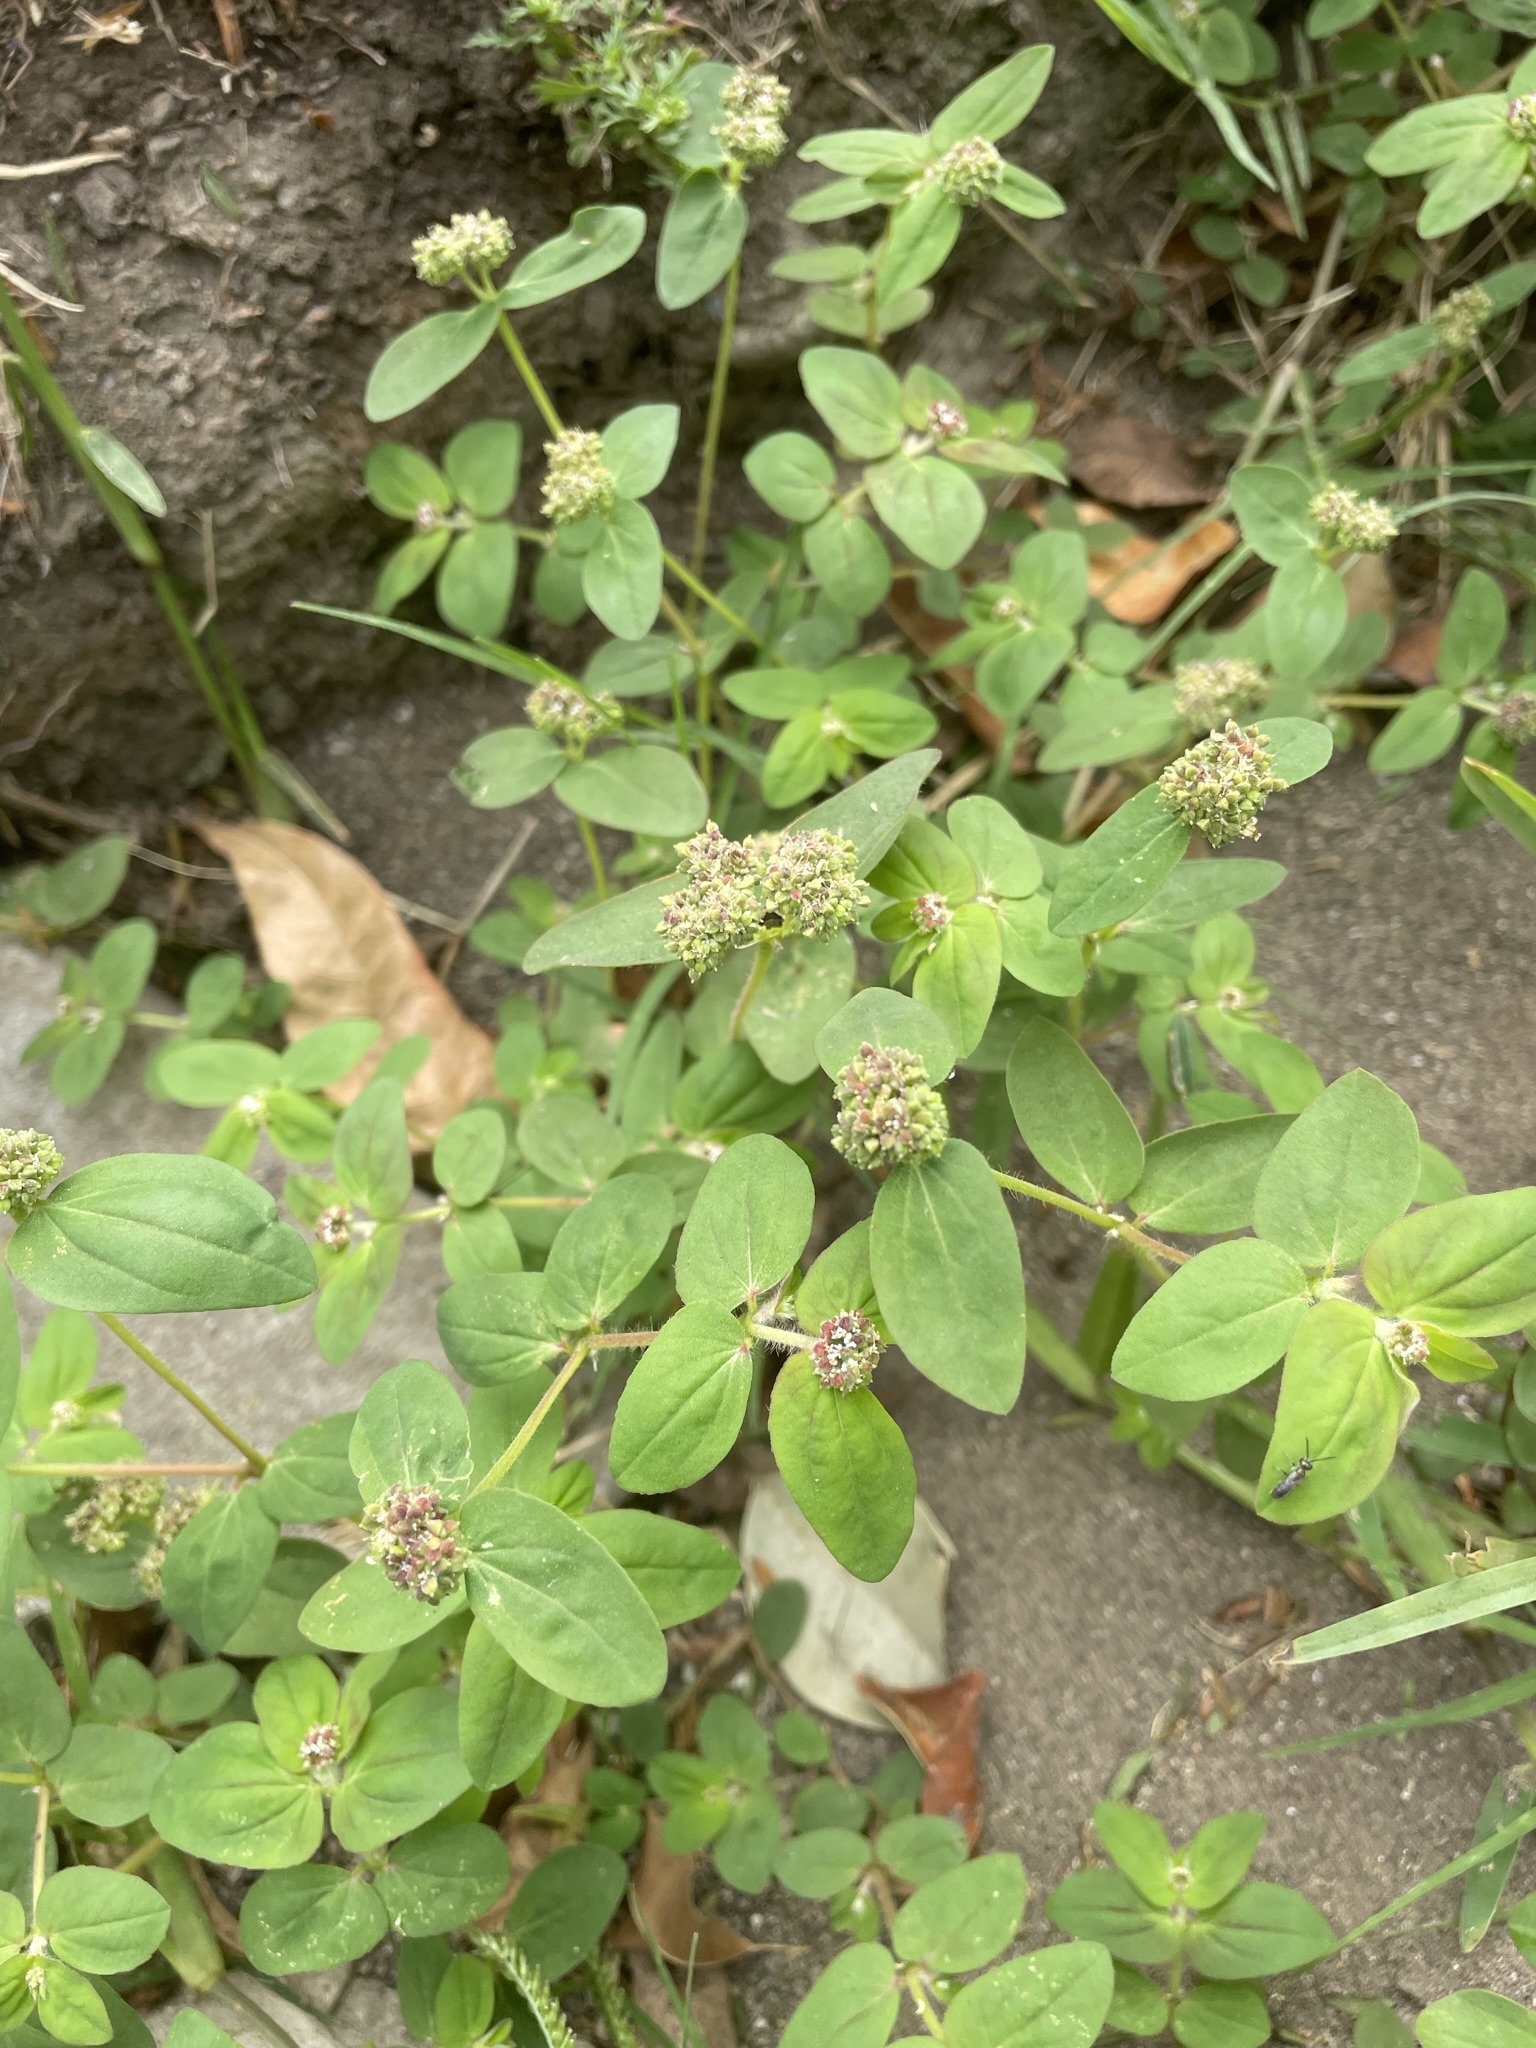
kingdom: Plantae
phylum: Tracheophyta
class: Magnoliopsida
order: Malpighiales
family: Euphorbiaceae
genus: Euphorbia
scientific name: Euphorbia ophthalmica
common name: Florida hammock sandmat
